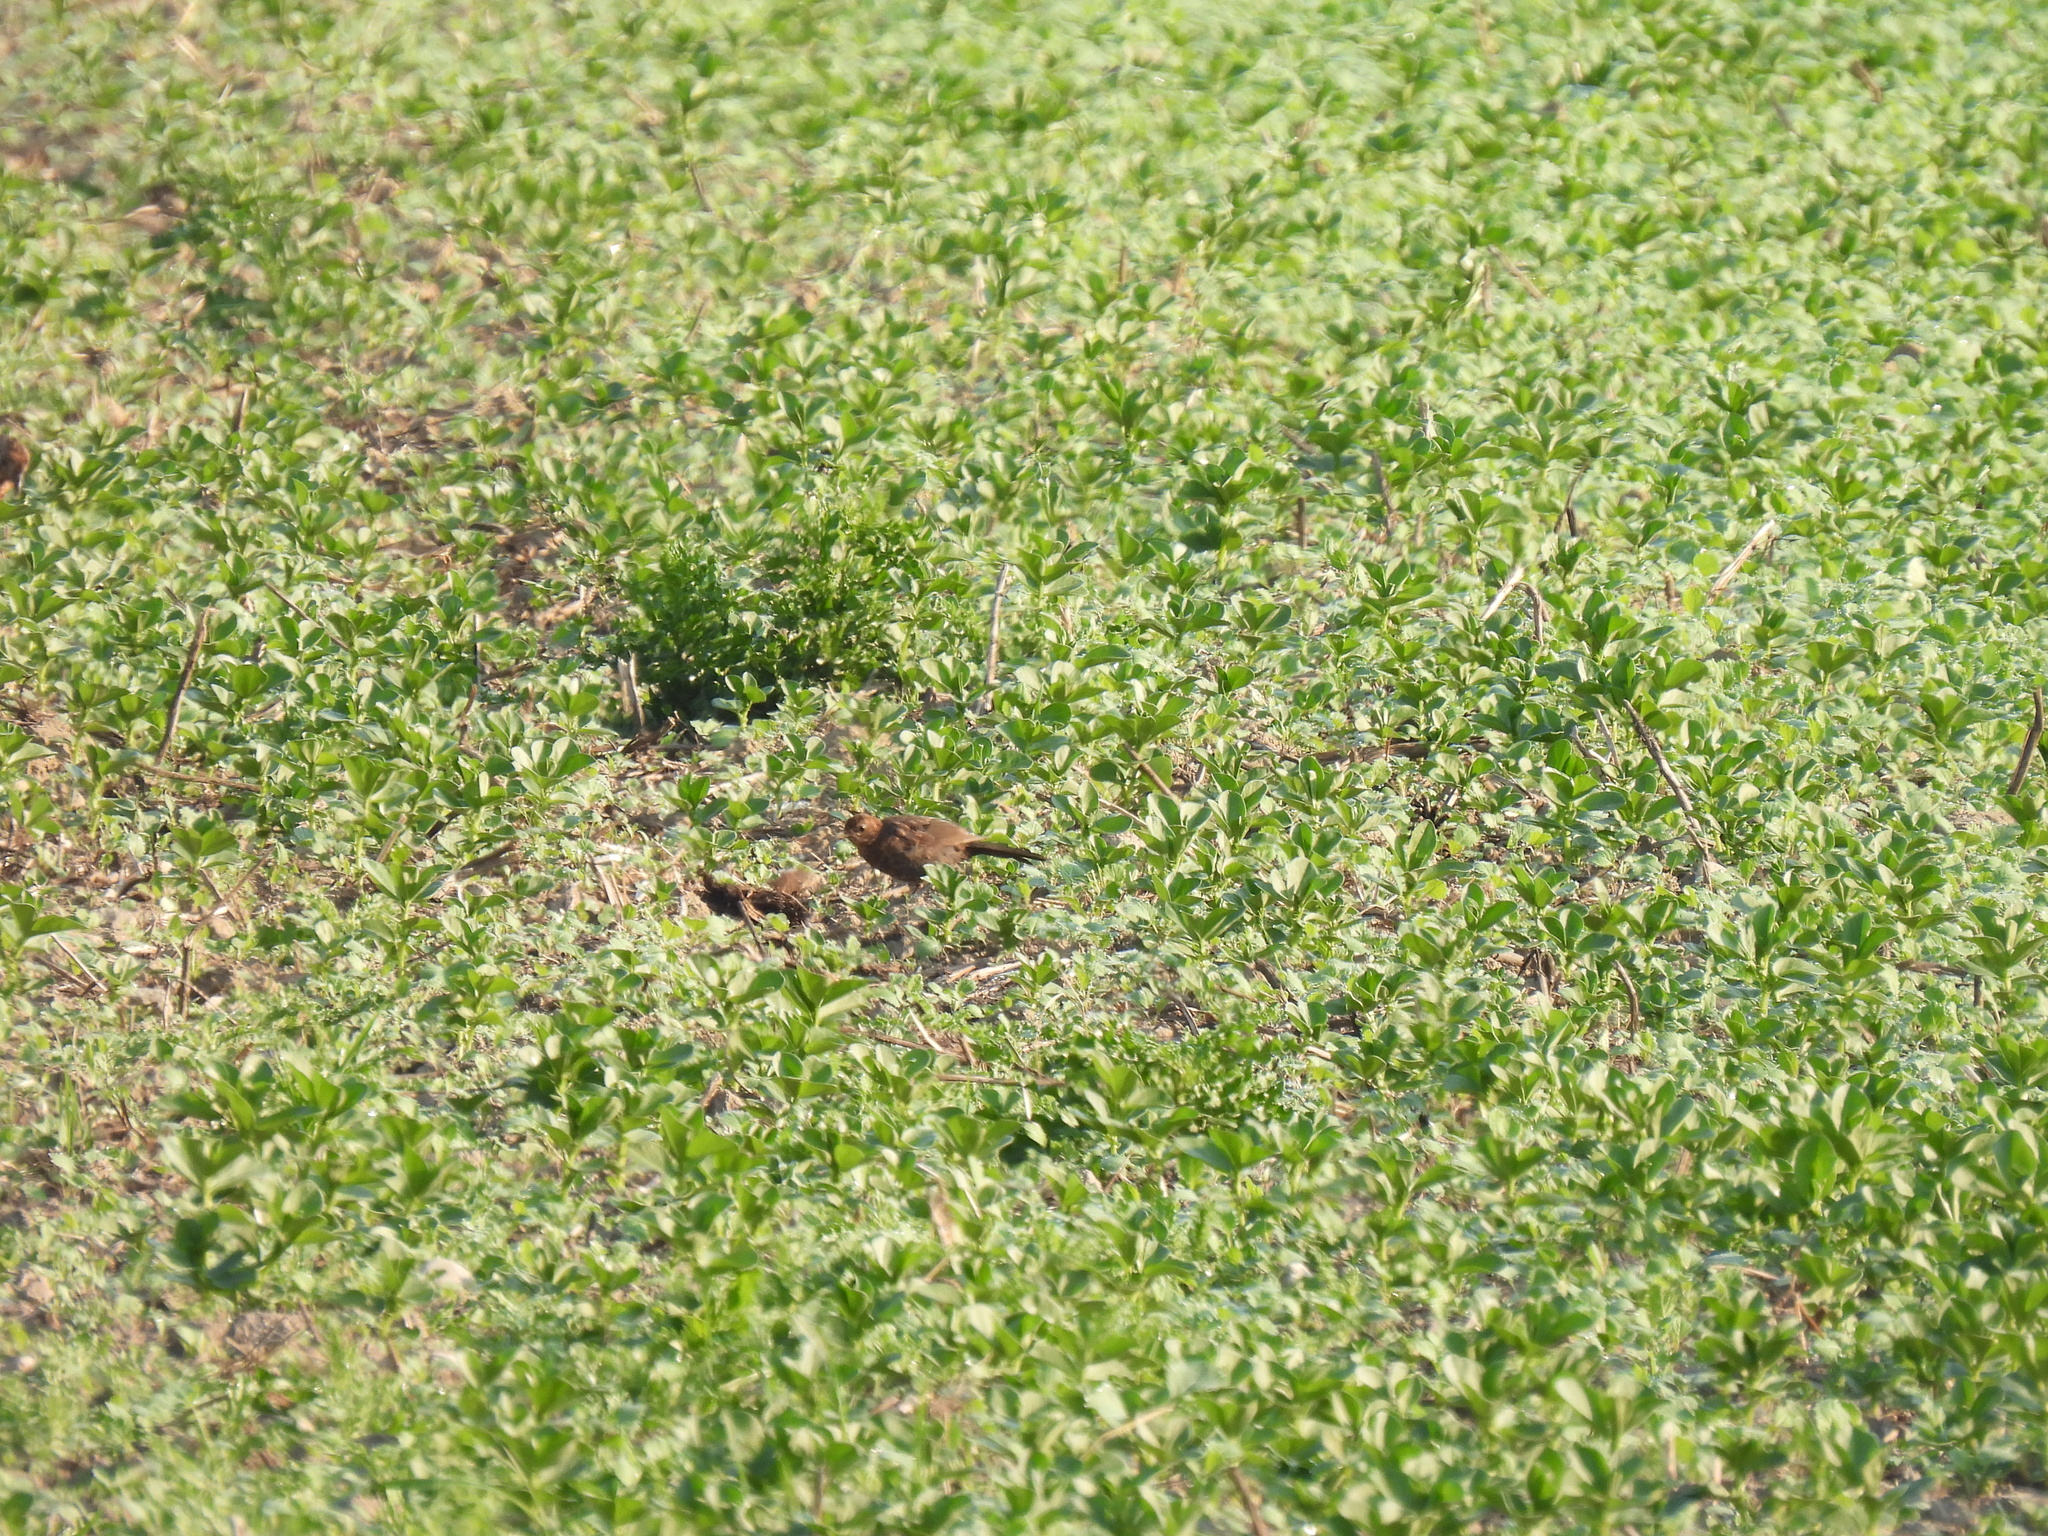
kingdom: Animalia
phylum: Chordata
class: Aves
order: Passeriformes
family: Turdidae
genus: Turdus
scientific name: Turdus merula
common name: Common blackbird
